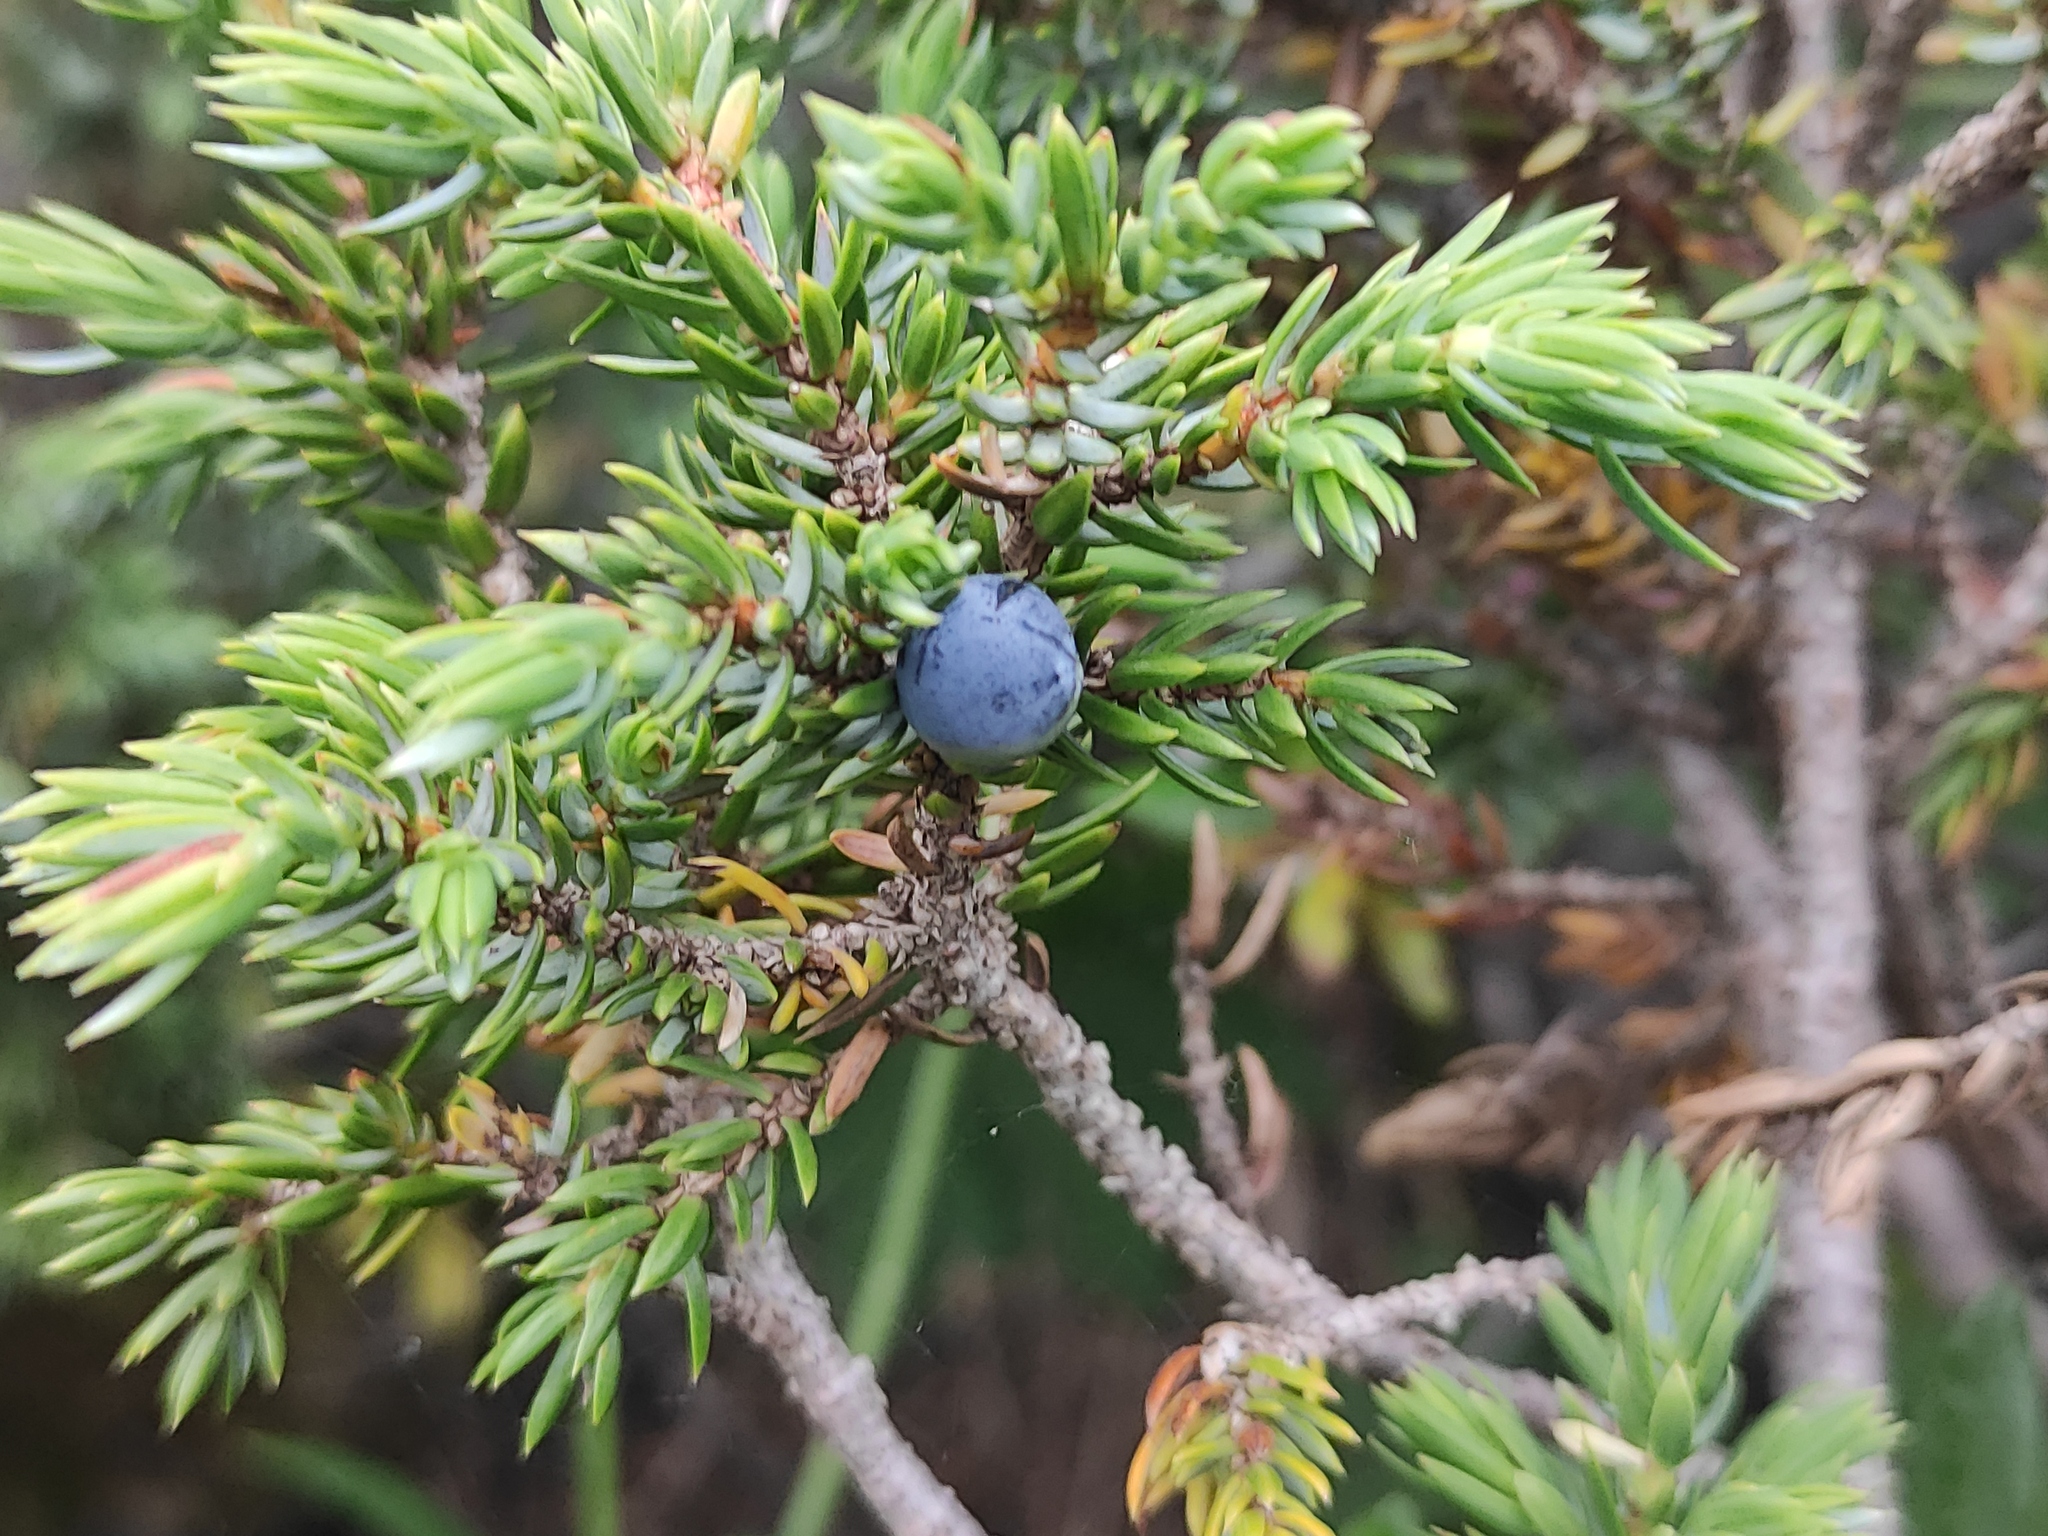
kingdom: Plantae
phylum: Tracheophyta
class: Pinopsida
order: Pinales
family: Cupressaceae
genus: Juniperus
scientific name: Juniperus communis
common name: Common juniper
